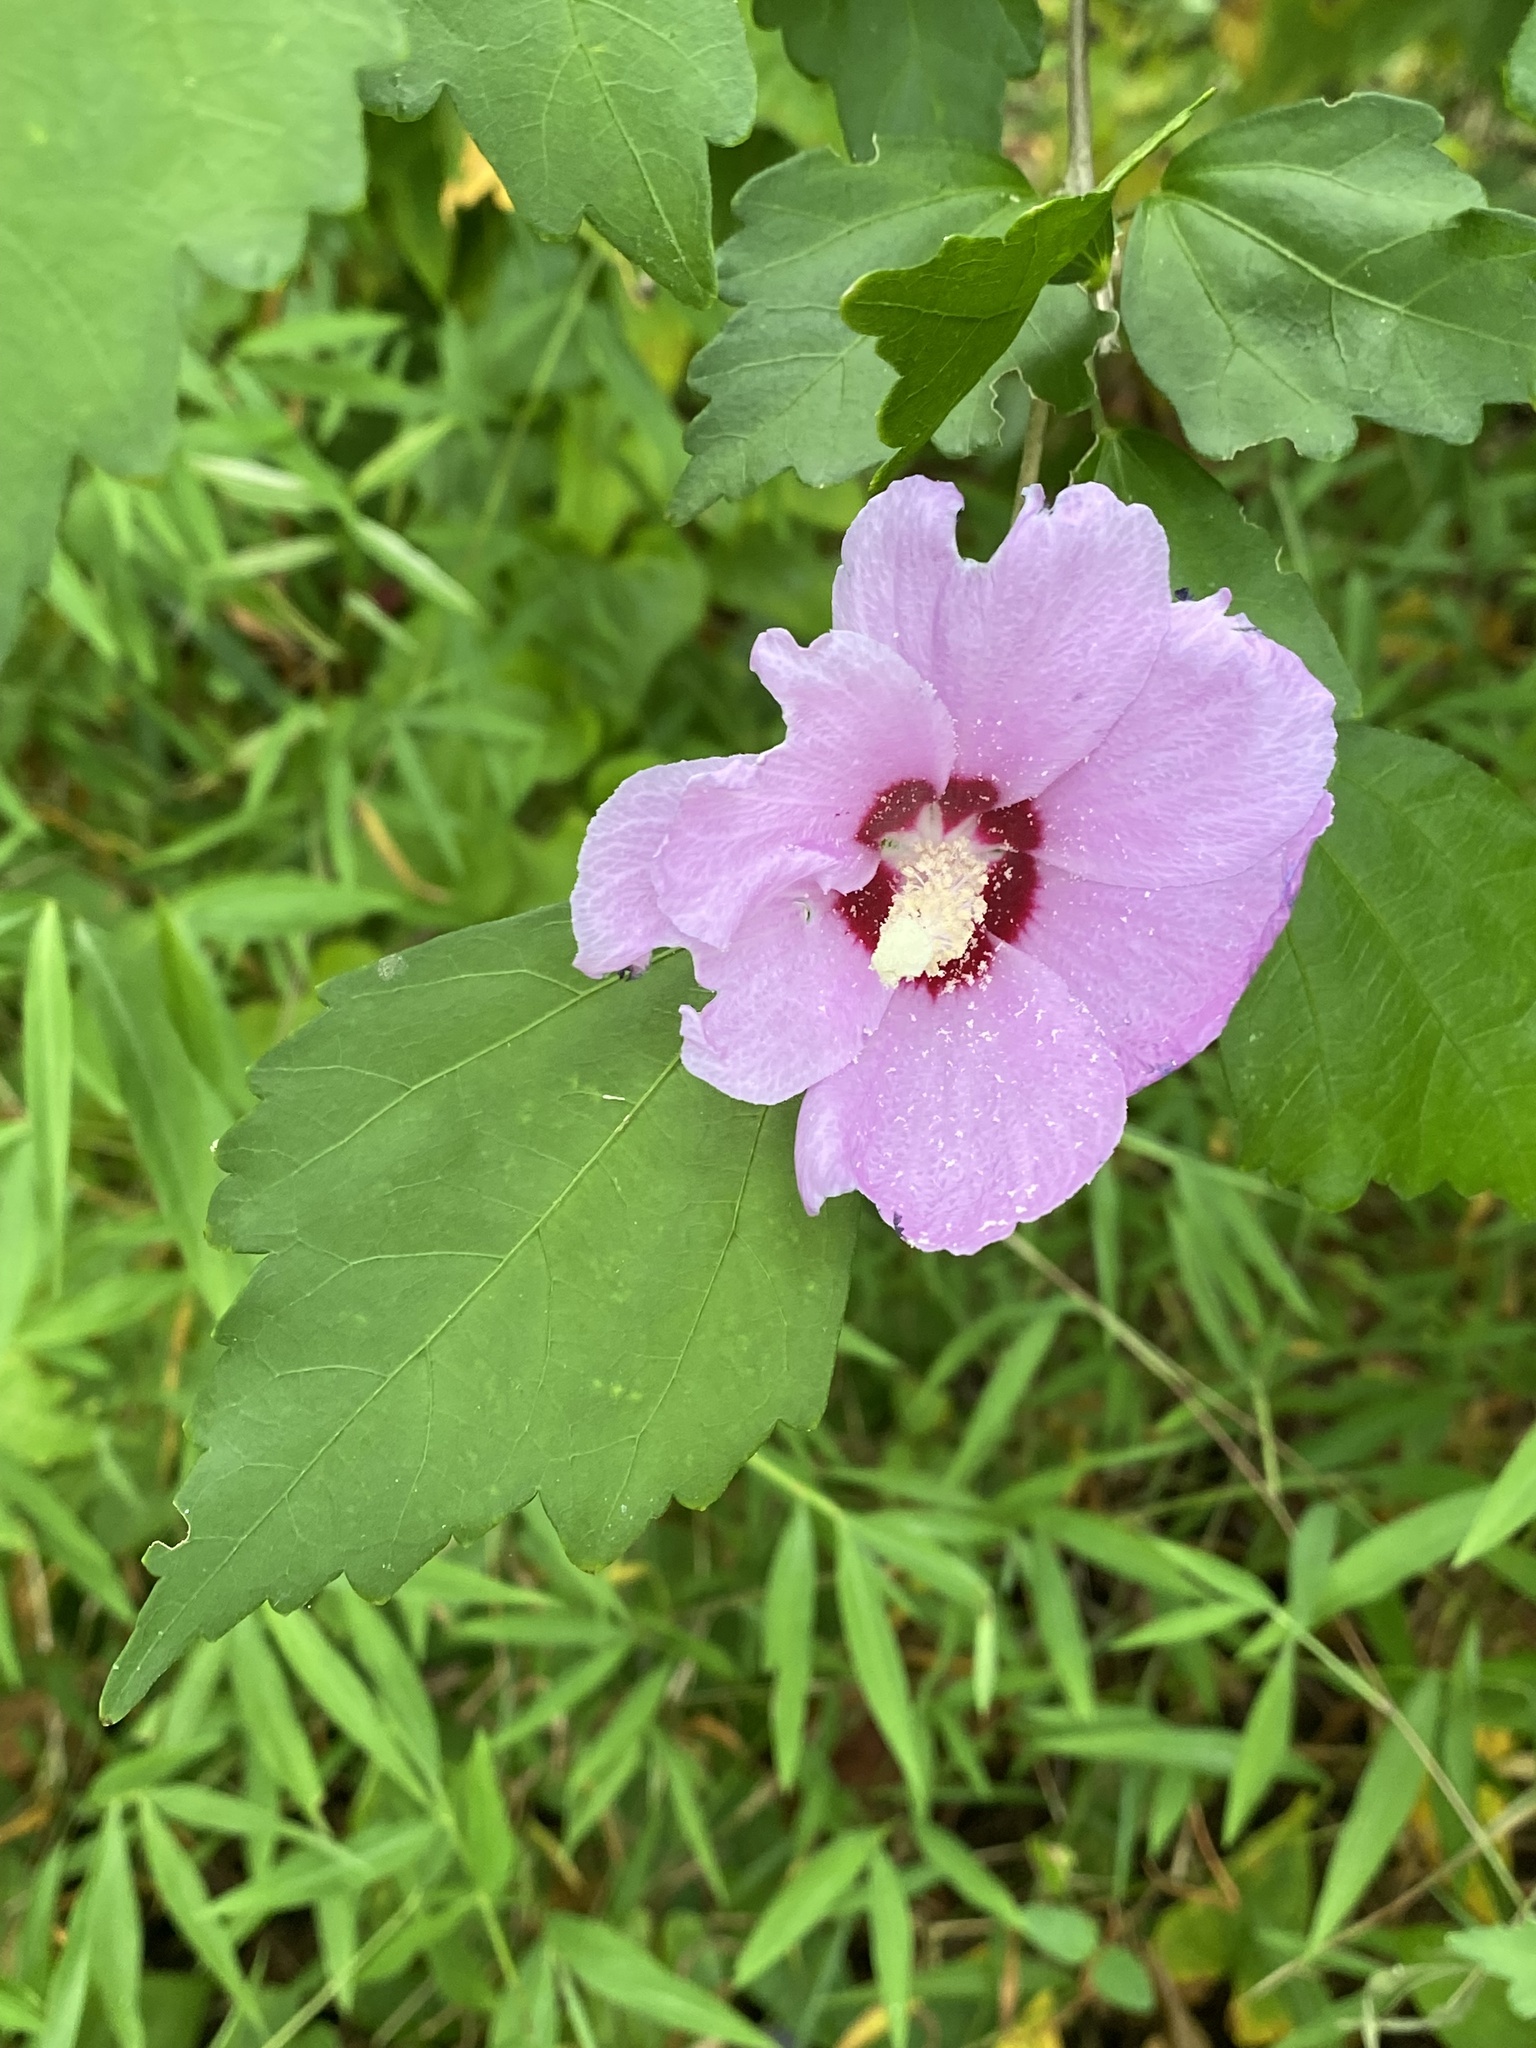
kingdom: Plantae
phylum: Tracheophyta
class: Magnoliopsida
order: Malvales
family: Malvaceae
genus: Hibiscus
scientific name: Hibiscus syriacus
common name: Syrian ketmia
